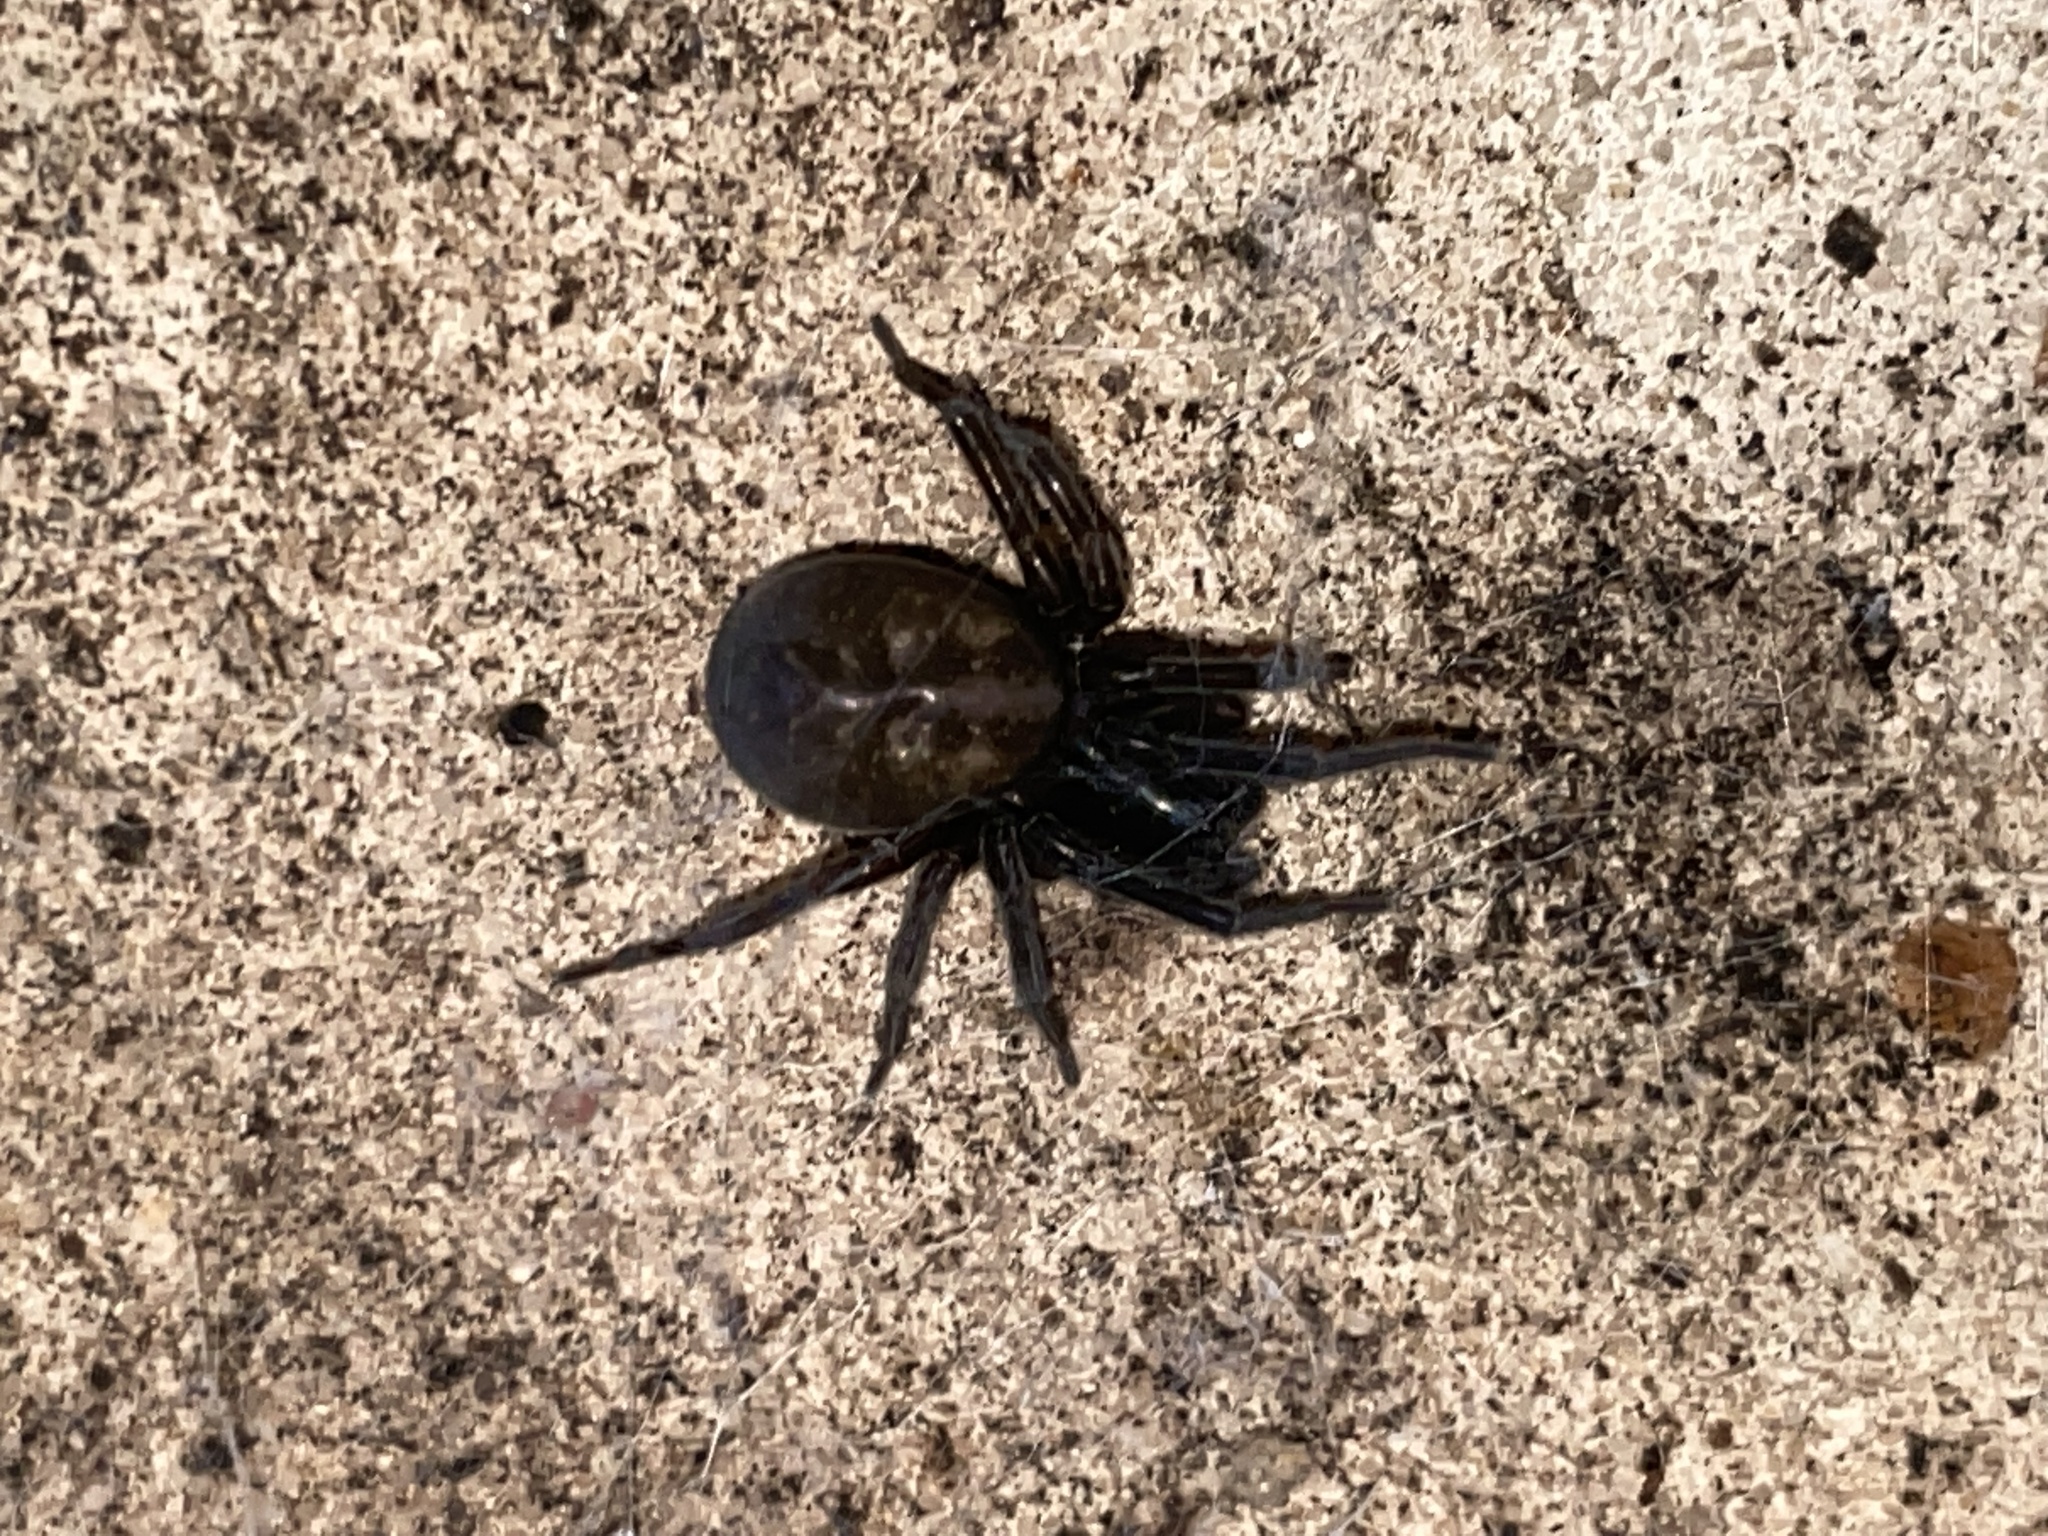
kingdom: Animalia
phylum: Arthropoda
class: Arachnida
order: Araneae
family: Amaurobiidae
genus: Amaurobius
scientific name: Amaurobius ferox
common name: Black laceweaver
